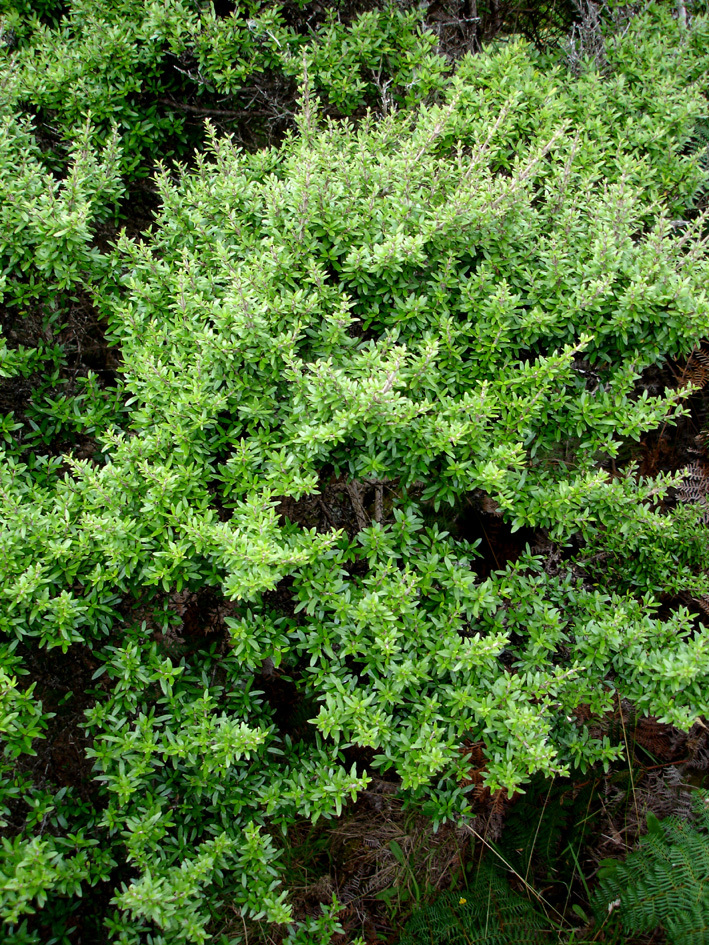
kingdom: Plantae
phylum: Tracheophyta
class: Magnoliopsida
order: Gentianales
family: Rubiaceae
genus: Coprosma
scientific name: Coprosma propinqua
